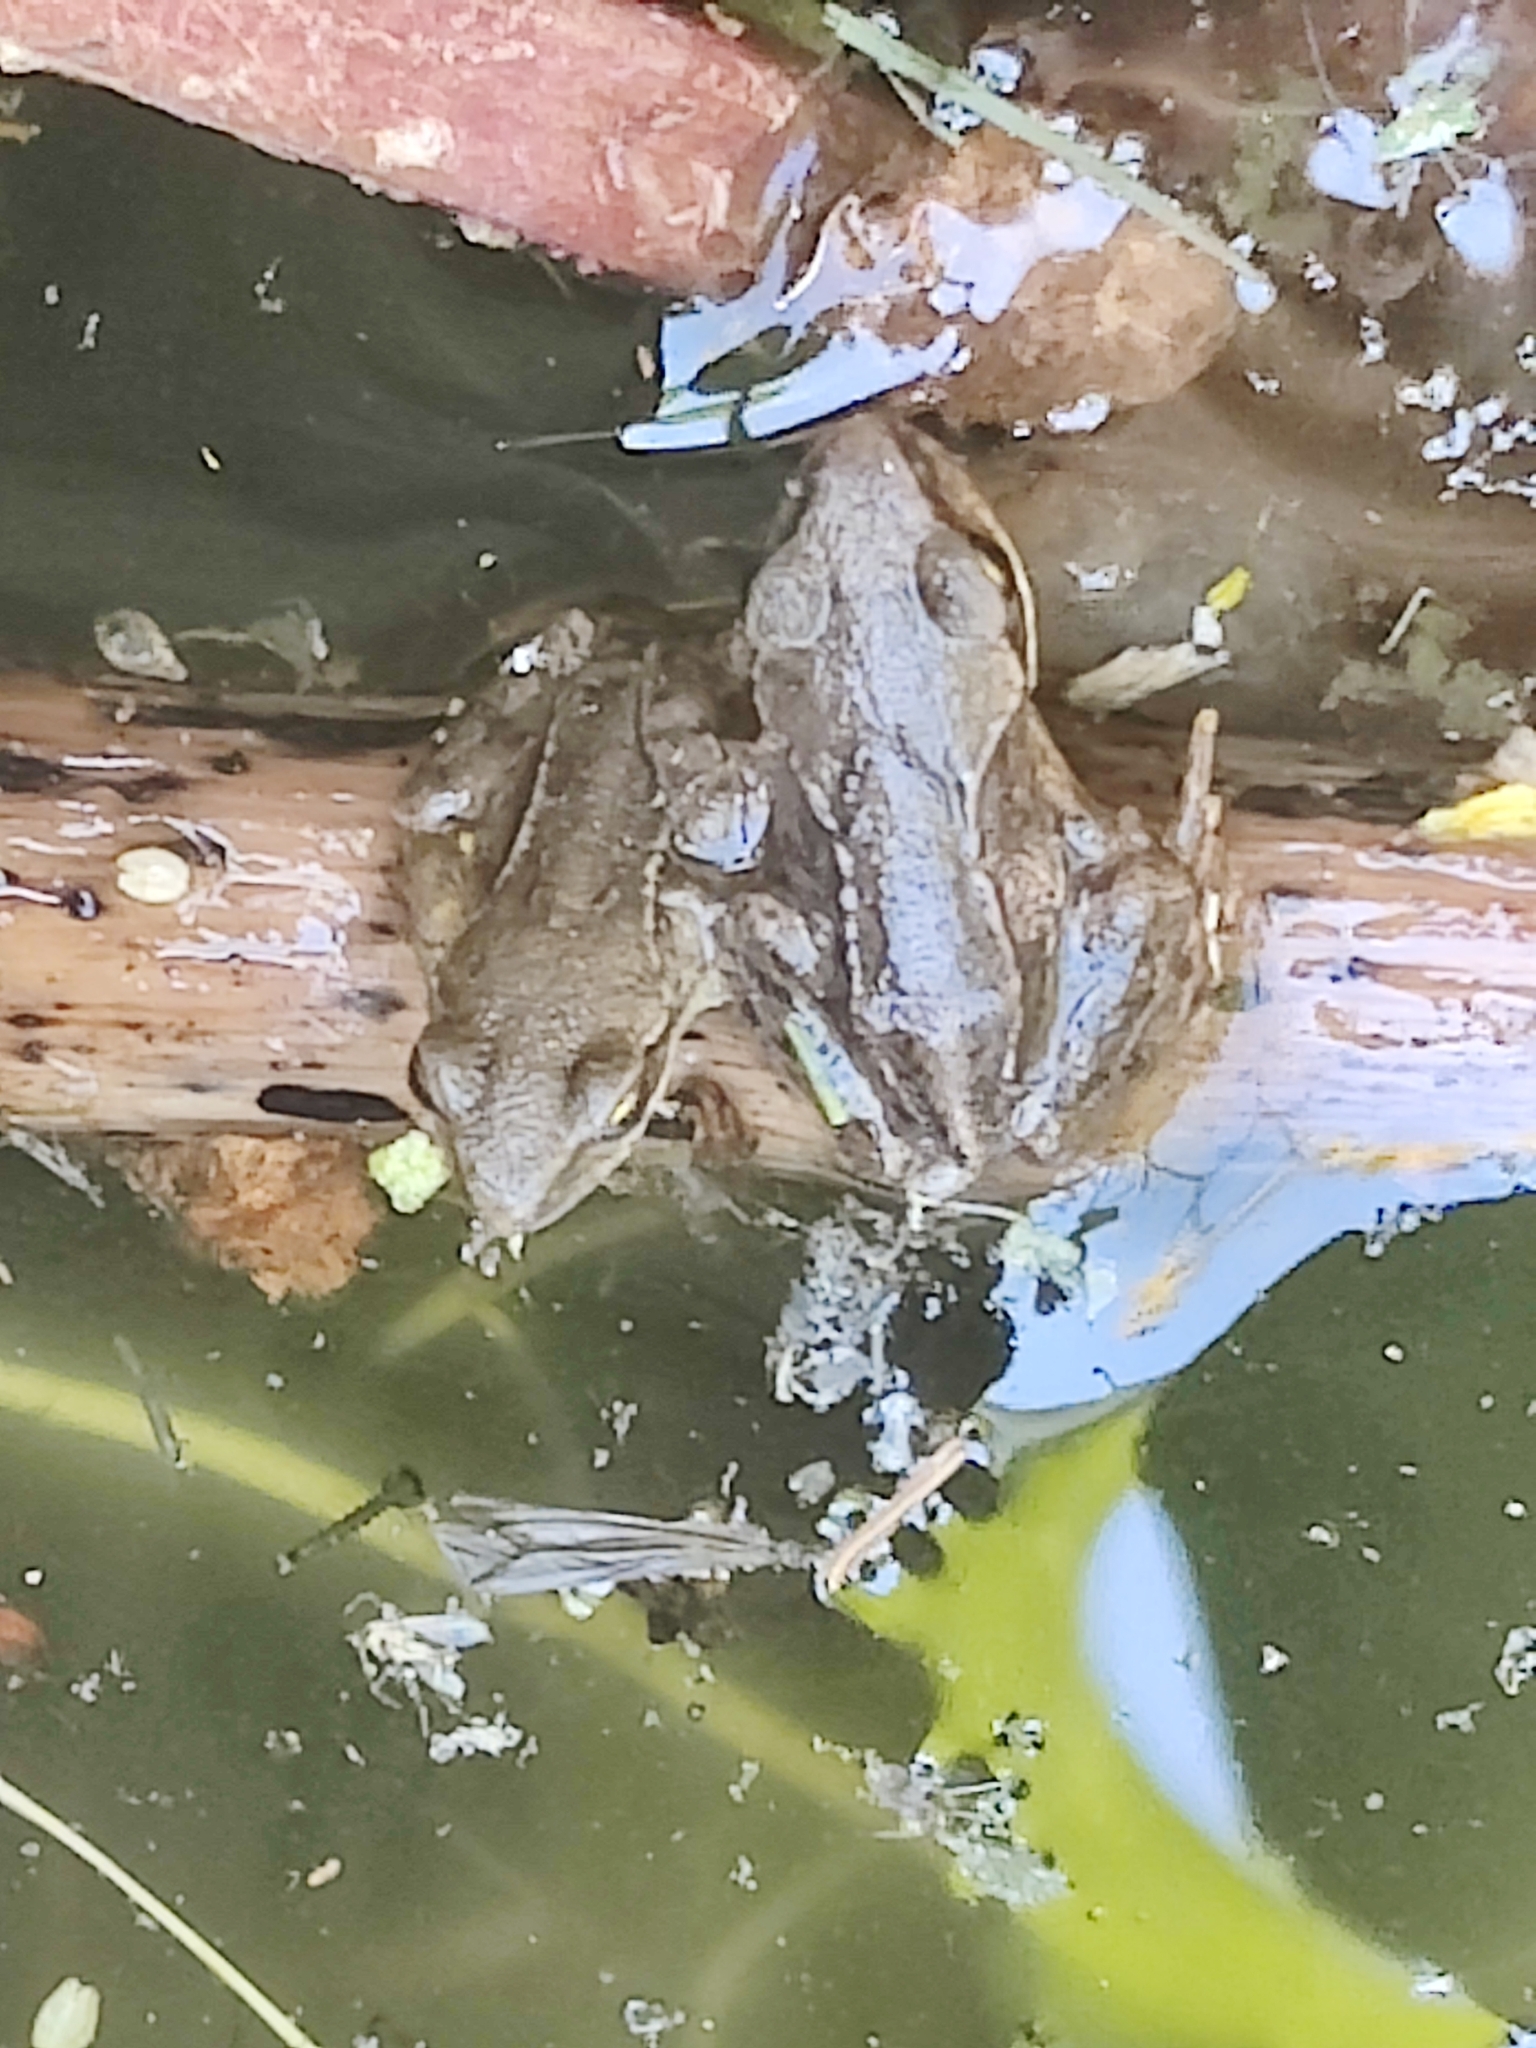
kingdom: Animalia
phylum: Chordata
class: Amphibia
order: Anura
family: Ranidae
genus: Rana
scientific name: Rana temporaria
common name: Common frog
